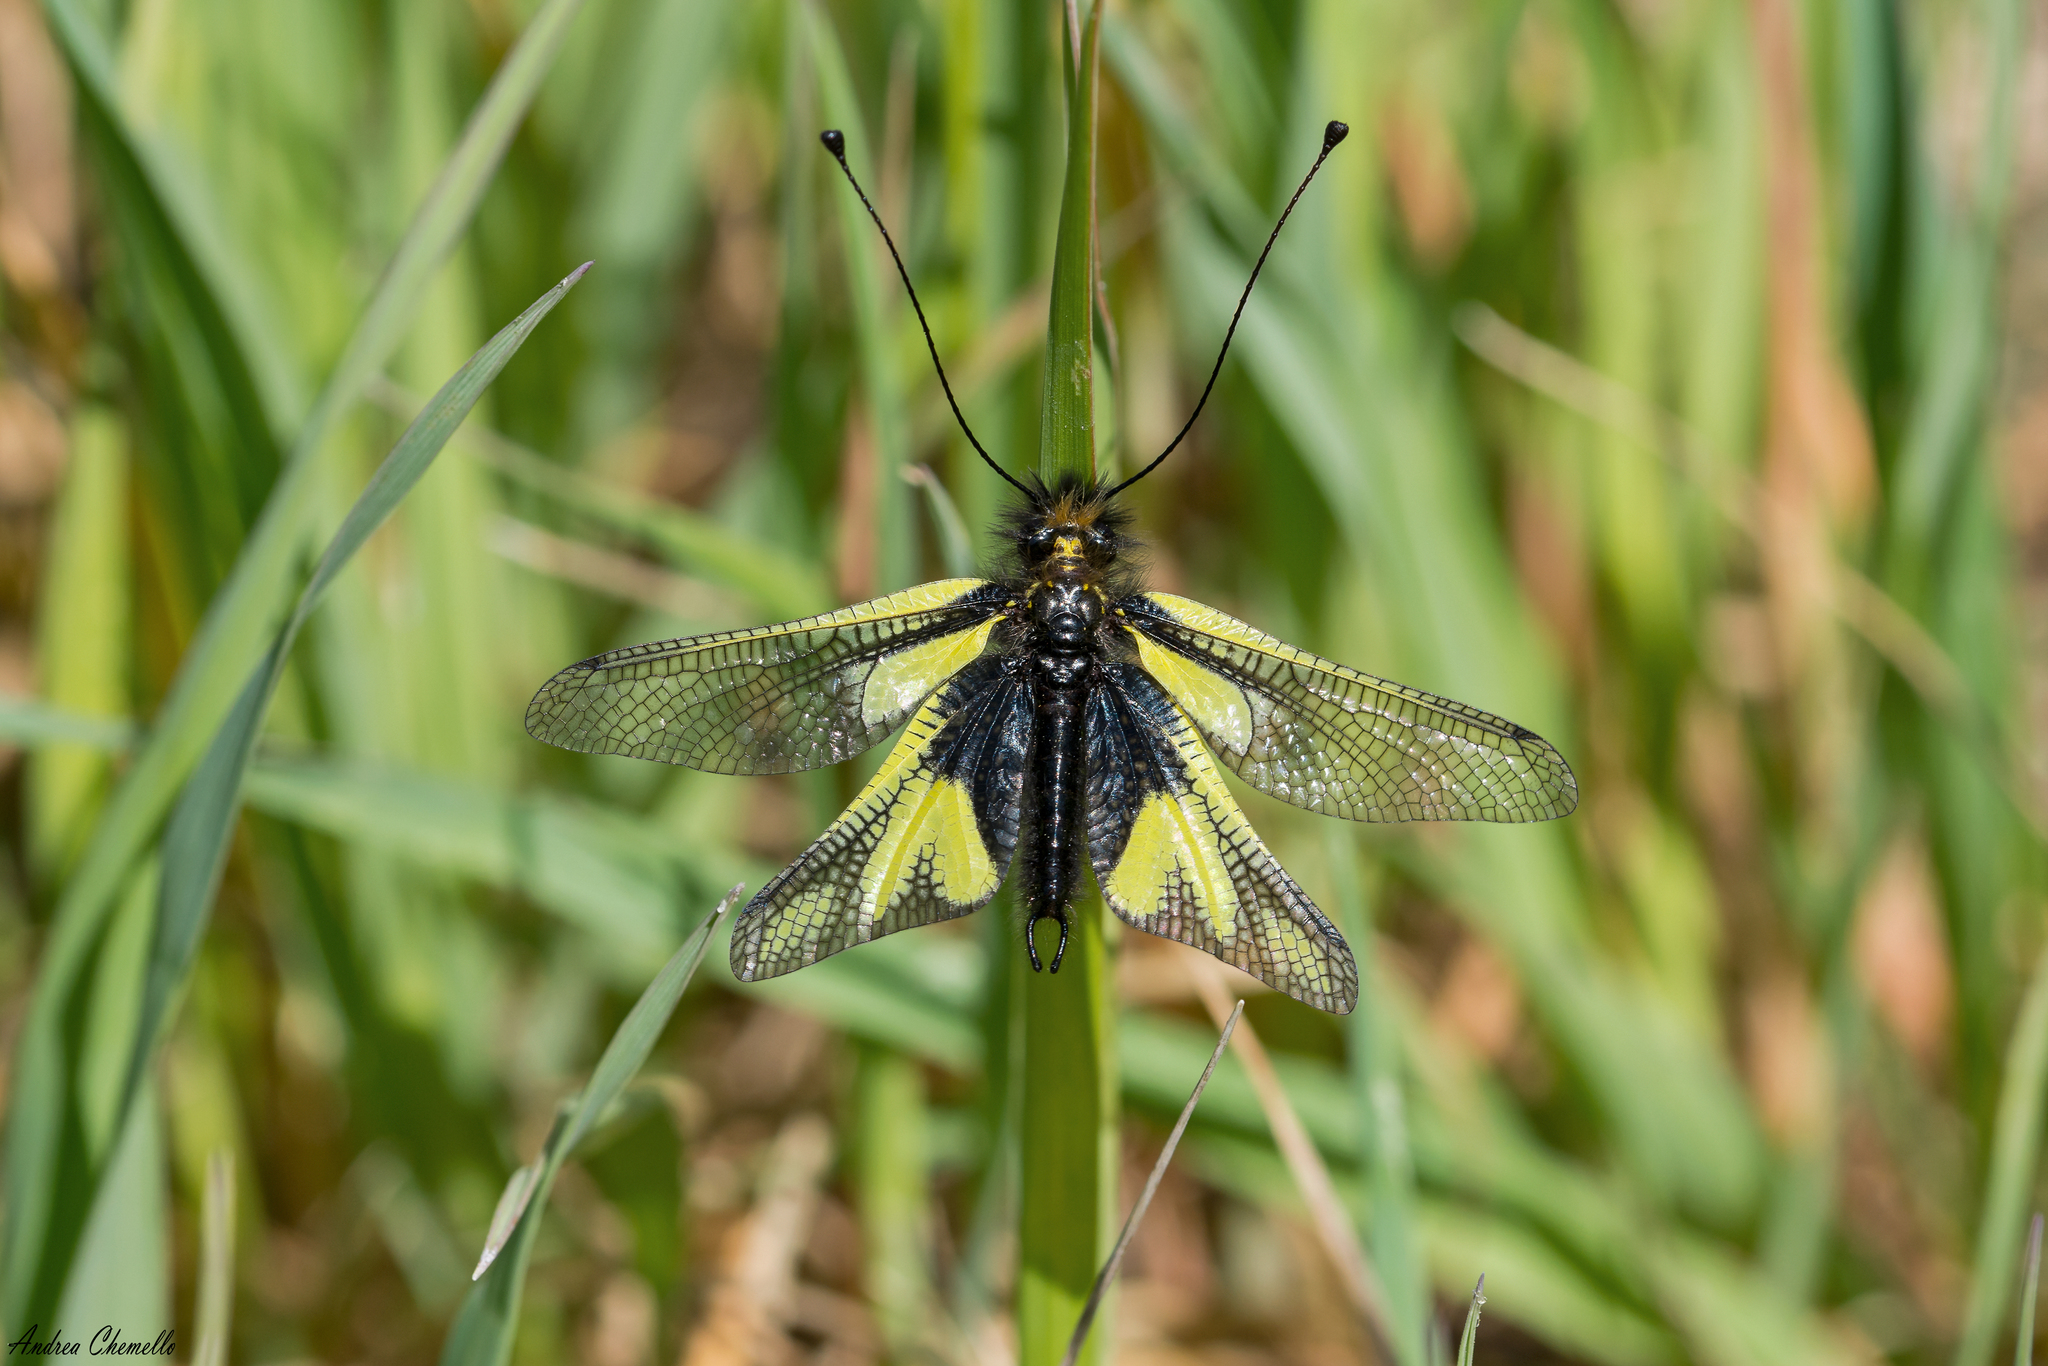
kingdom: Animalia
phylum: Arthropoda
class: Insecta
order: Neuroptera
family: Ascalaphidae
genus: Libelloides
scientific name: Libelloides coccajus
